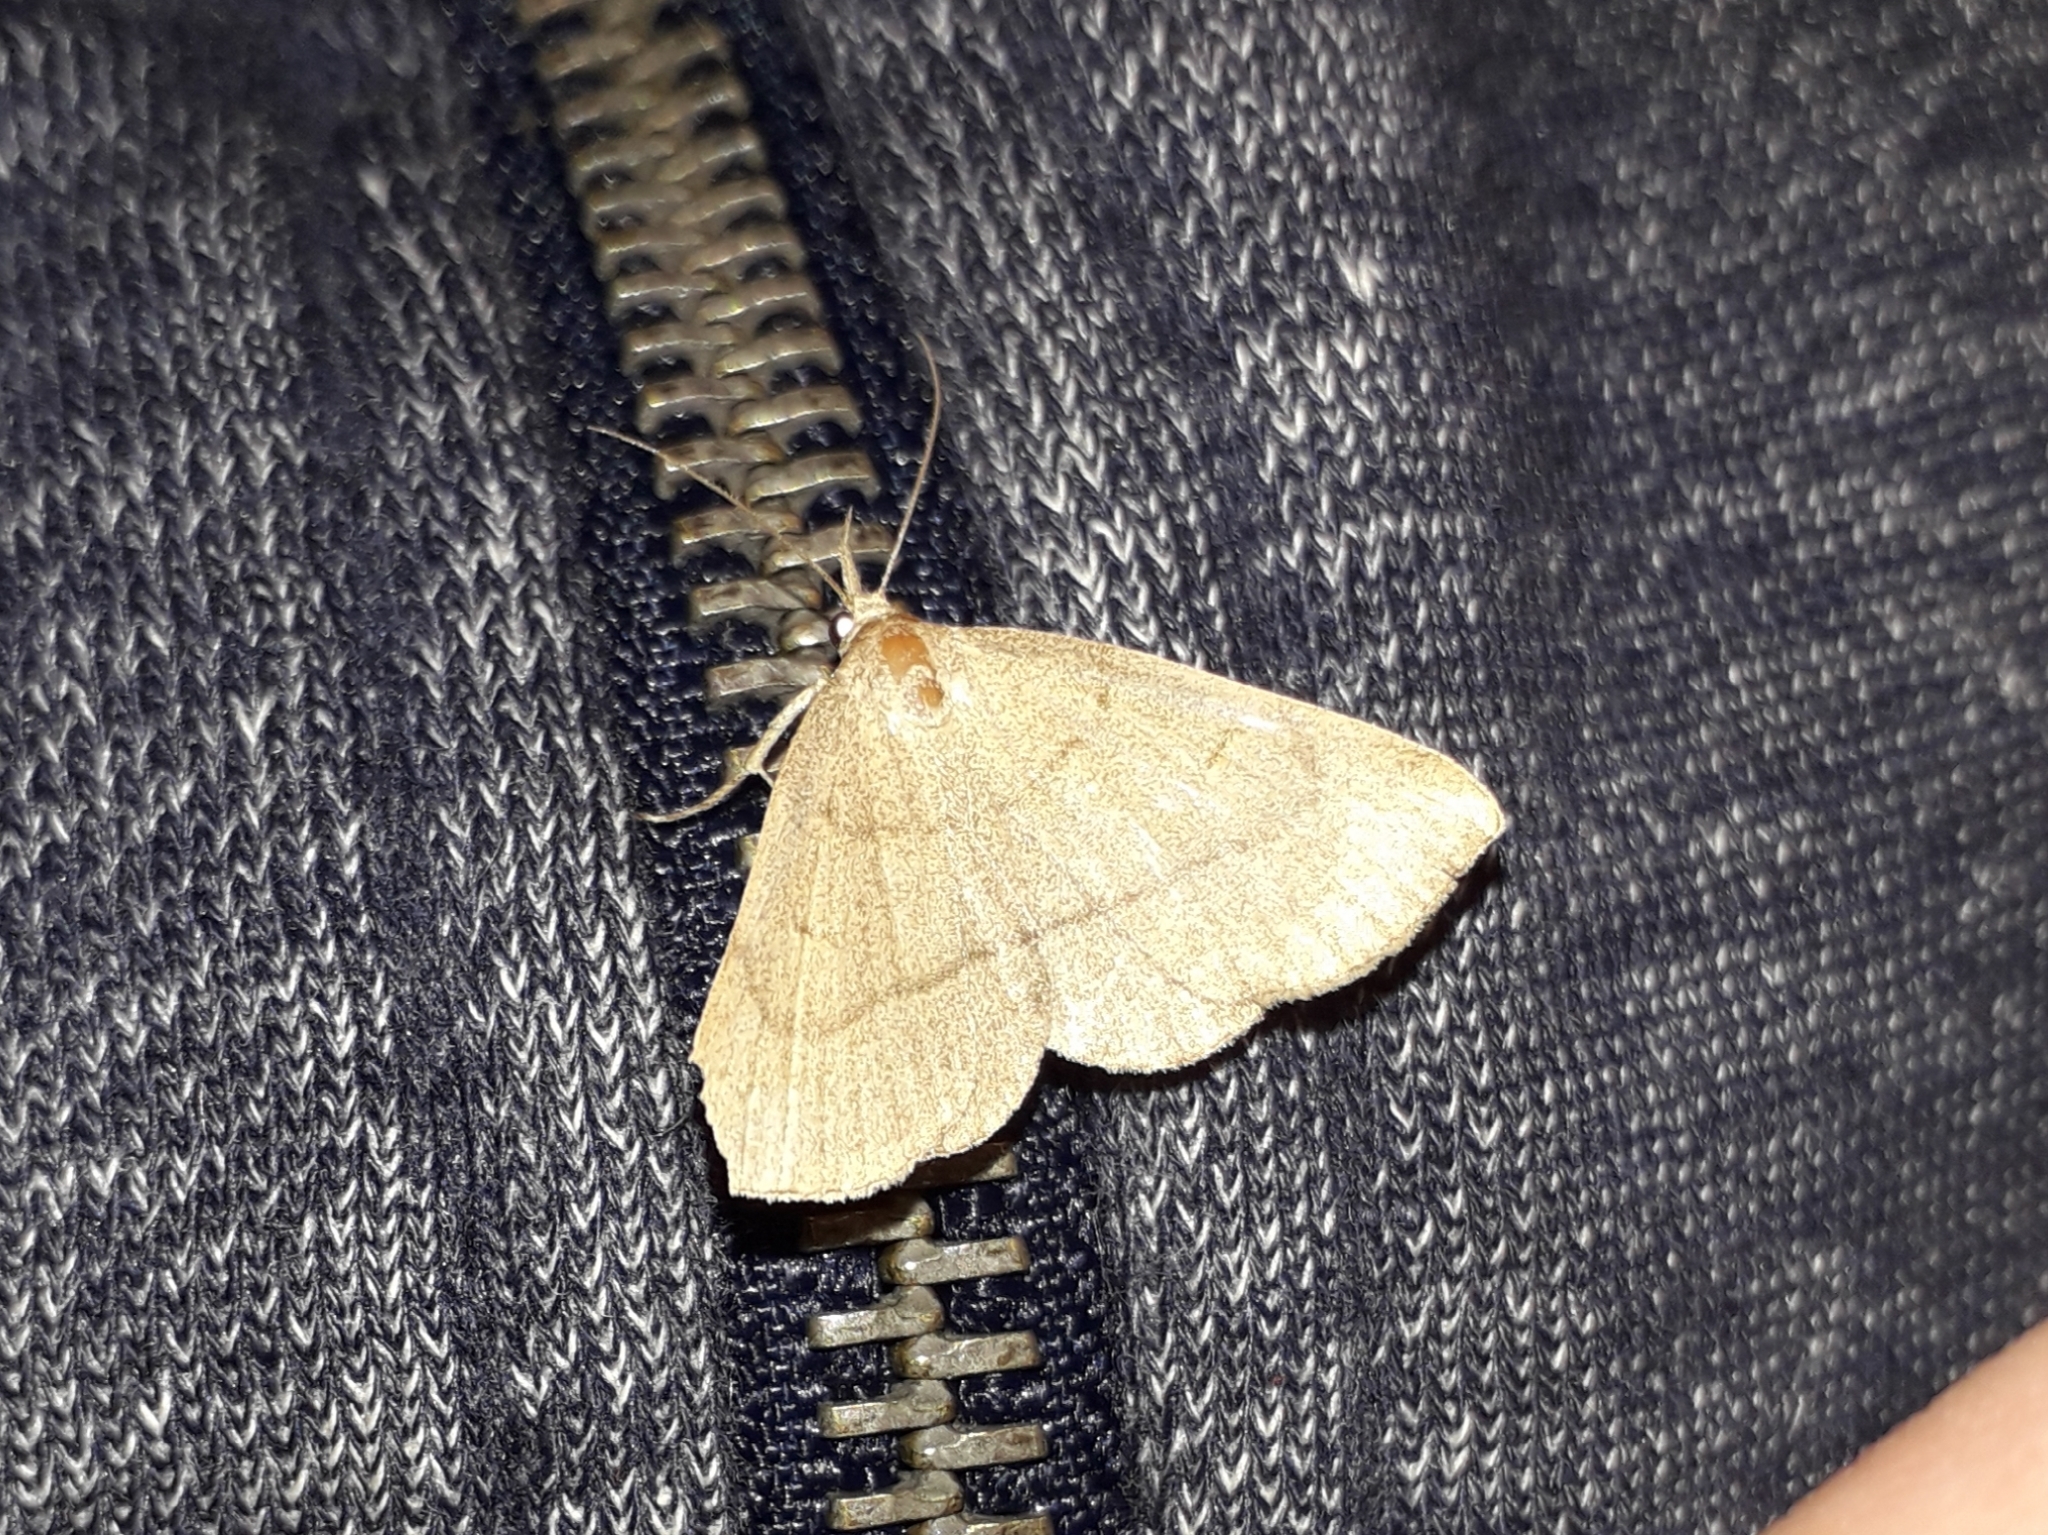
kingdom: Animalia
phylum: Arthropoda
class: Insecta
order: Lepidoptera
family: Erebidae
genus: Paracolax
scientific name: Paracolax tristalis
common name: Clay fan-foot
